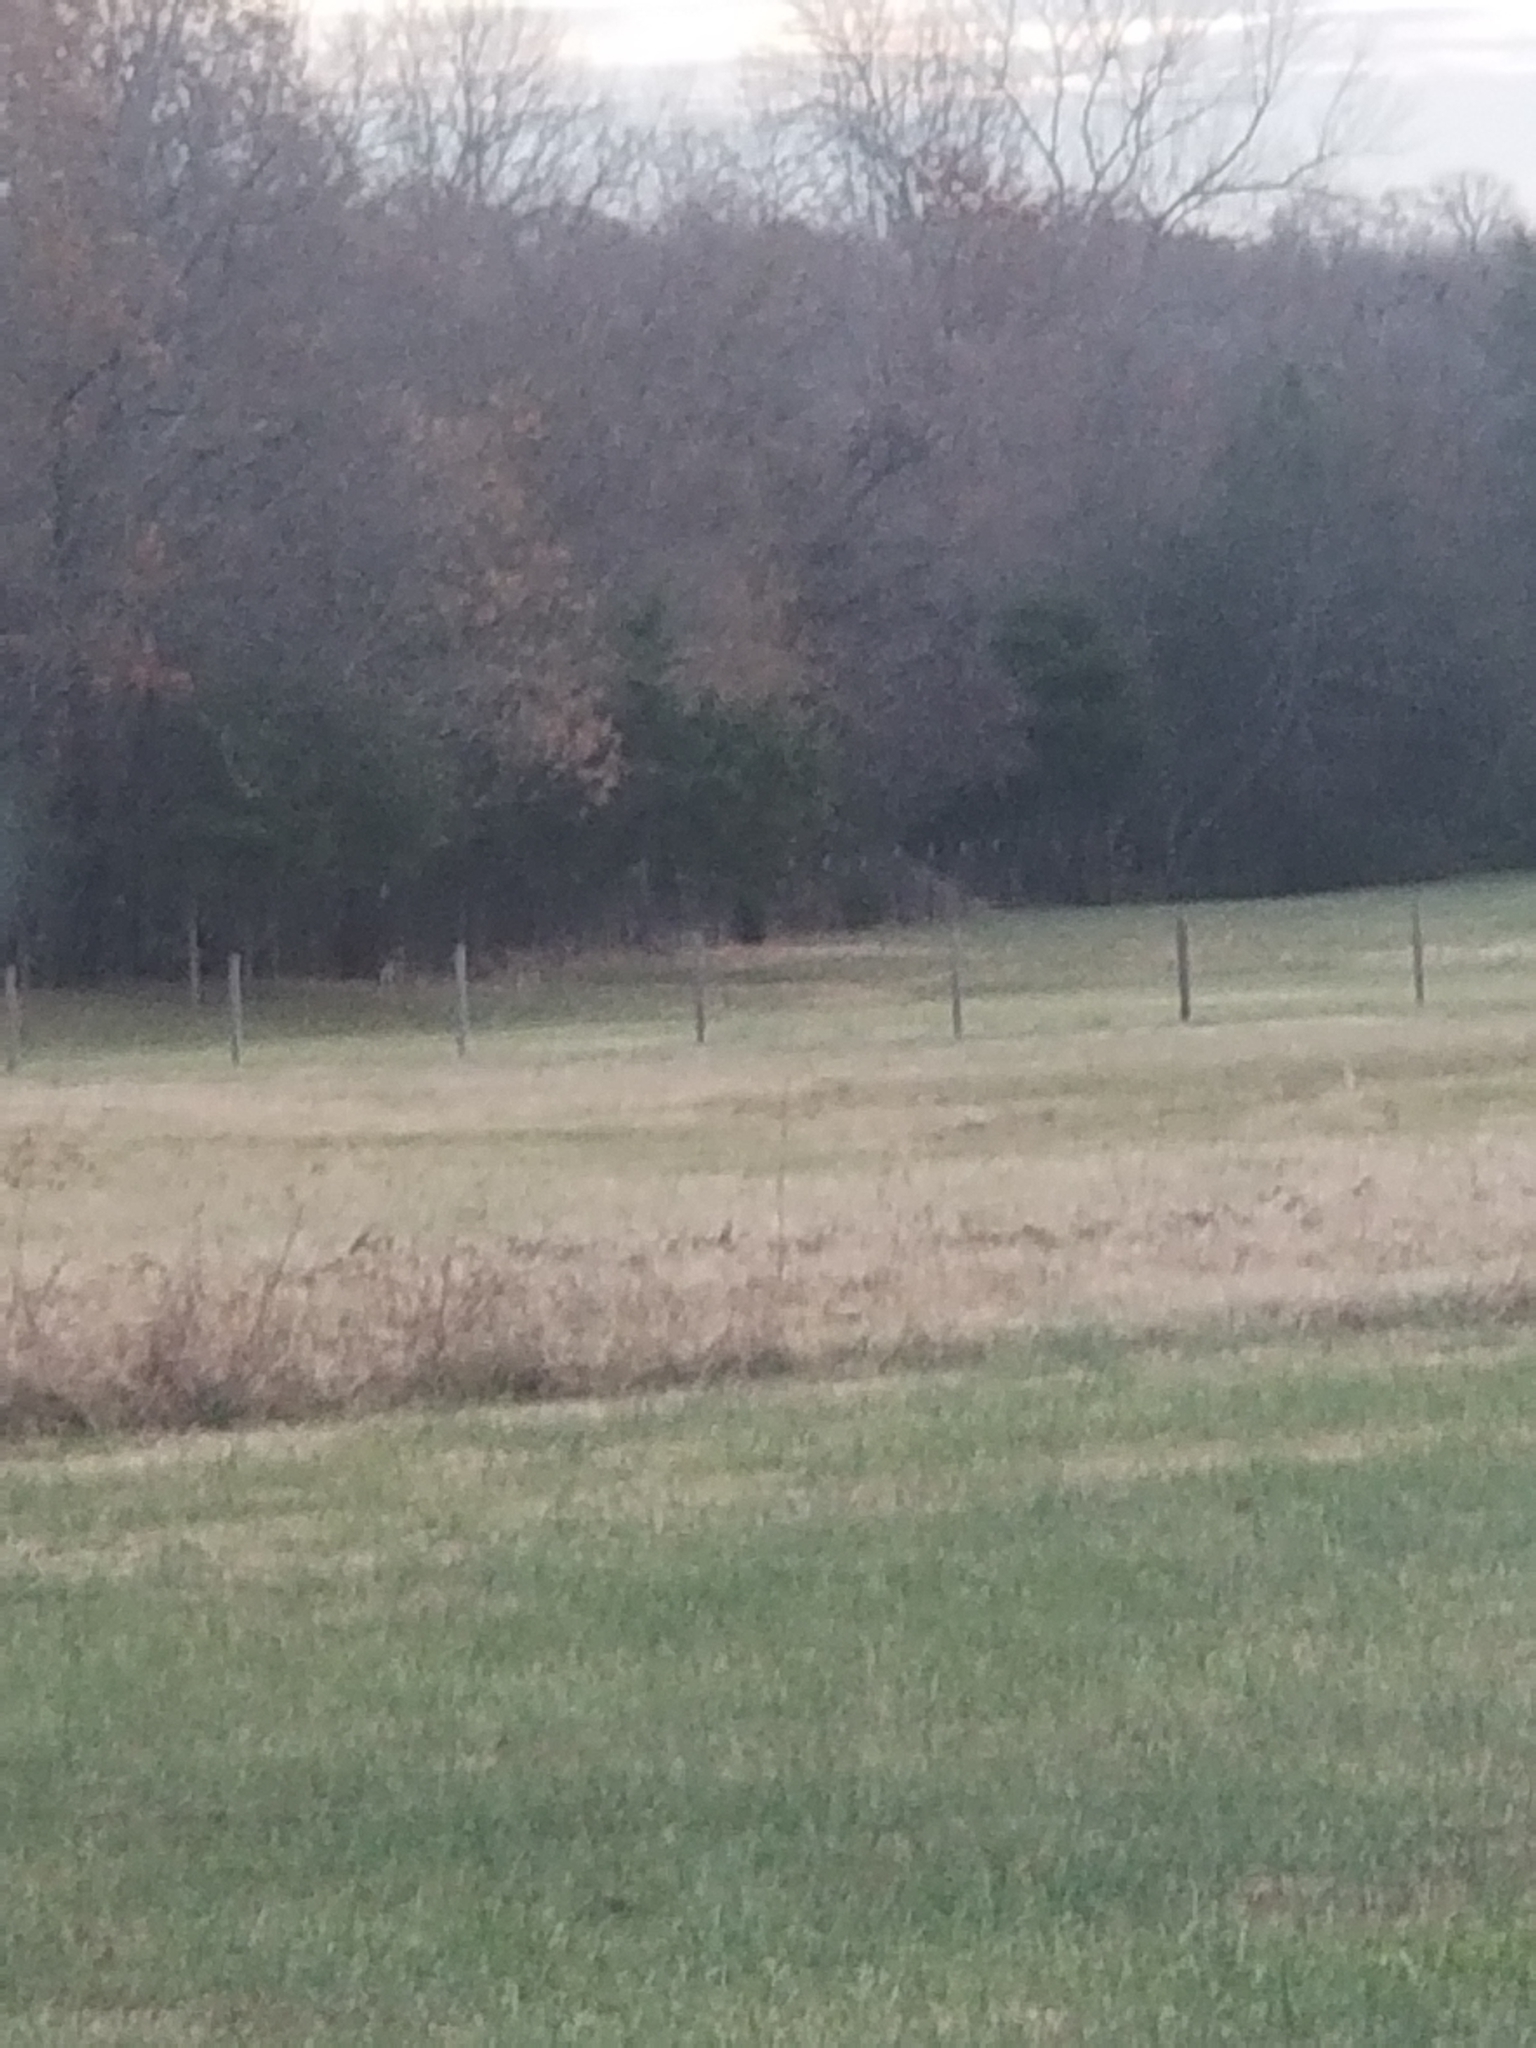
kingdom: Animalia
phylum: Chordata
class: Mammalia
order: Artiodactyla
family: Cervidae
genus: Odocoileus
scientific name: Odocoileus virginianus
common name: White-tailed deer
